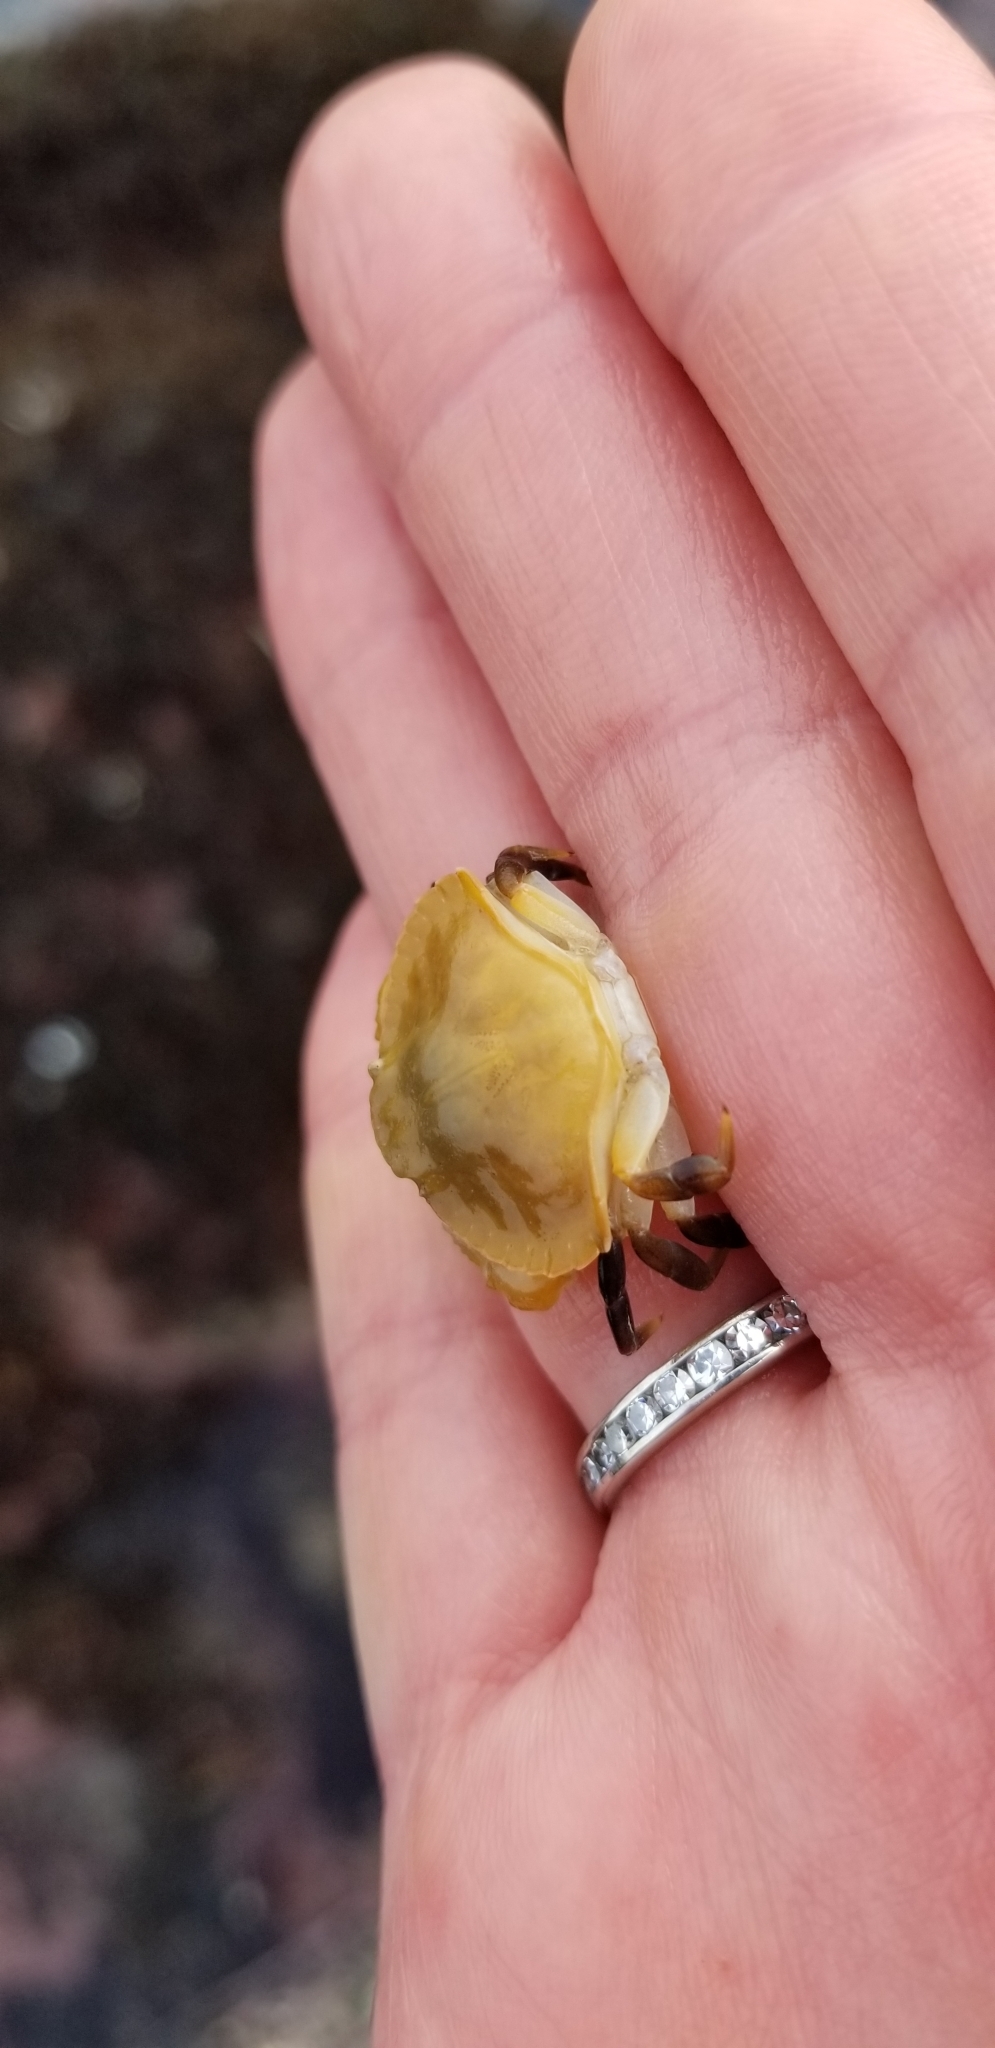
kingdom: Animalia
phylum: Arthropoda
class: Malacostraca
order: Decapoda
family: Cancridae
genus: Cancer
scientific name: Cancer productus
